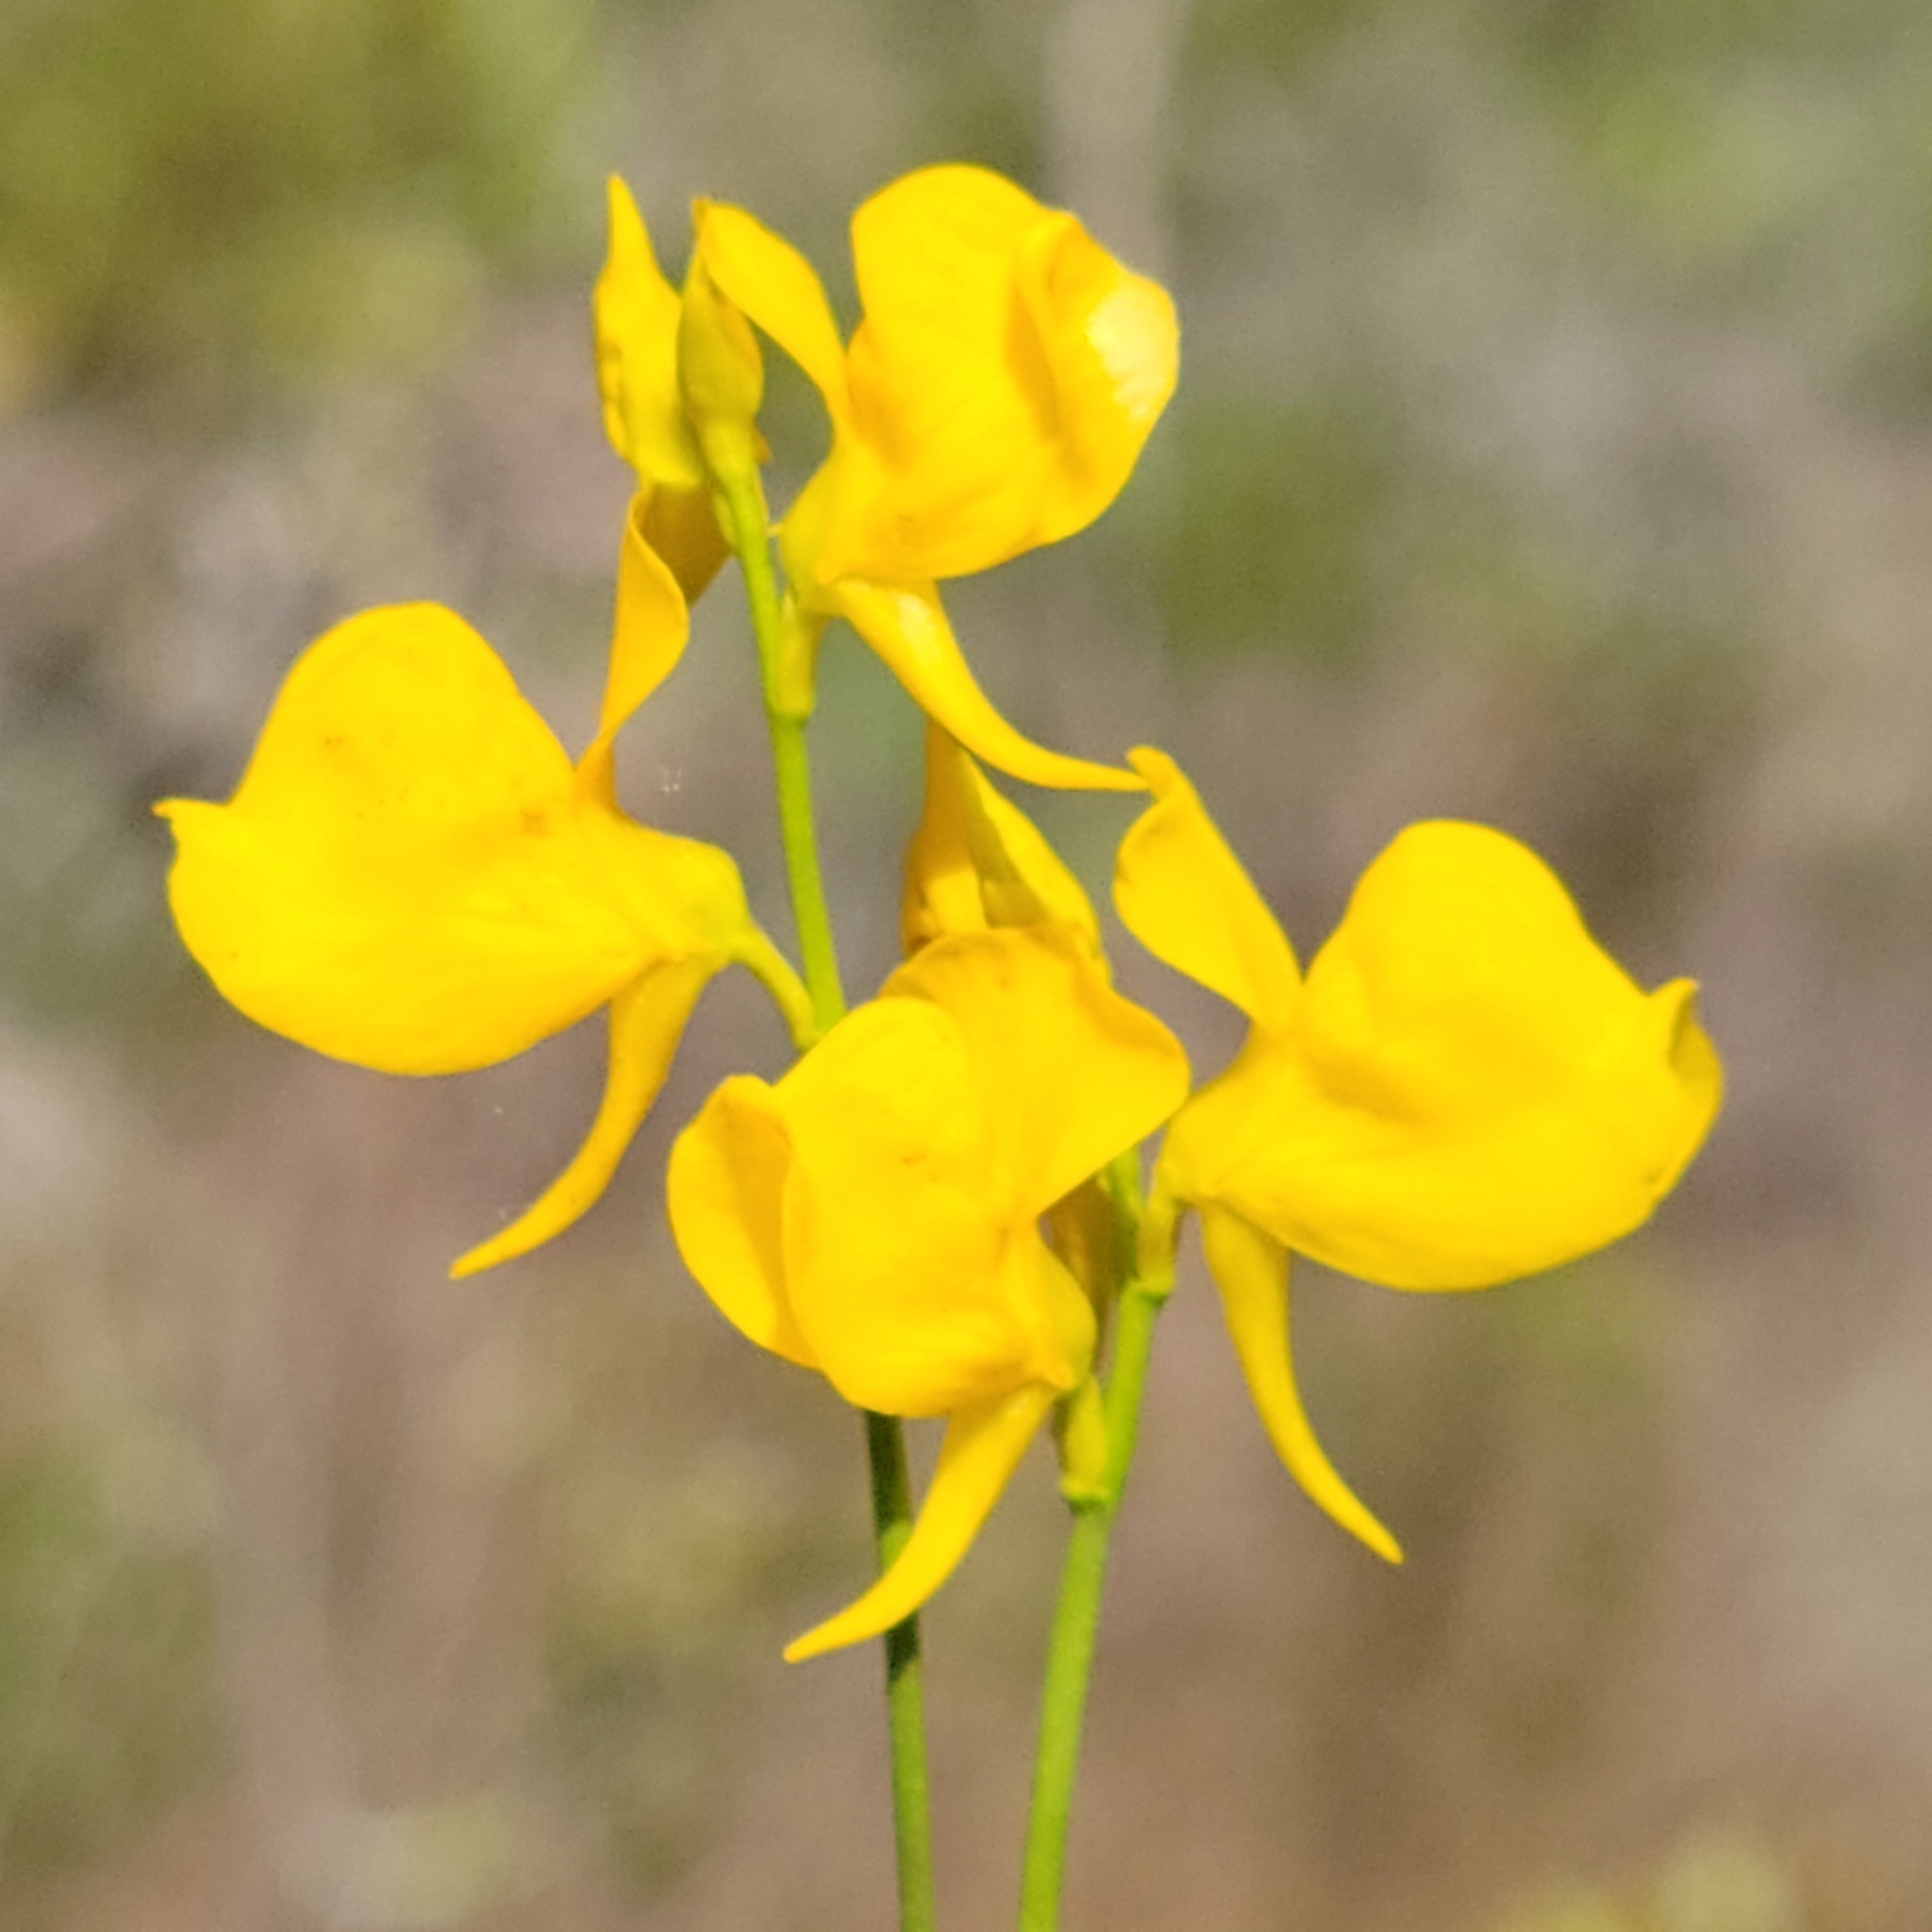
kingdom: Plantae
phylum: Tracheophyta
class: Magnoliopsida
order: Lamiales
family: Lentibulariaceae
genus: Utricularia
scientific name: Utricularia cornuta
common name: Horned bladderwort
